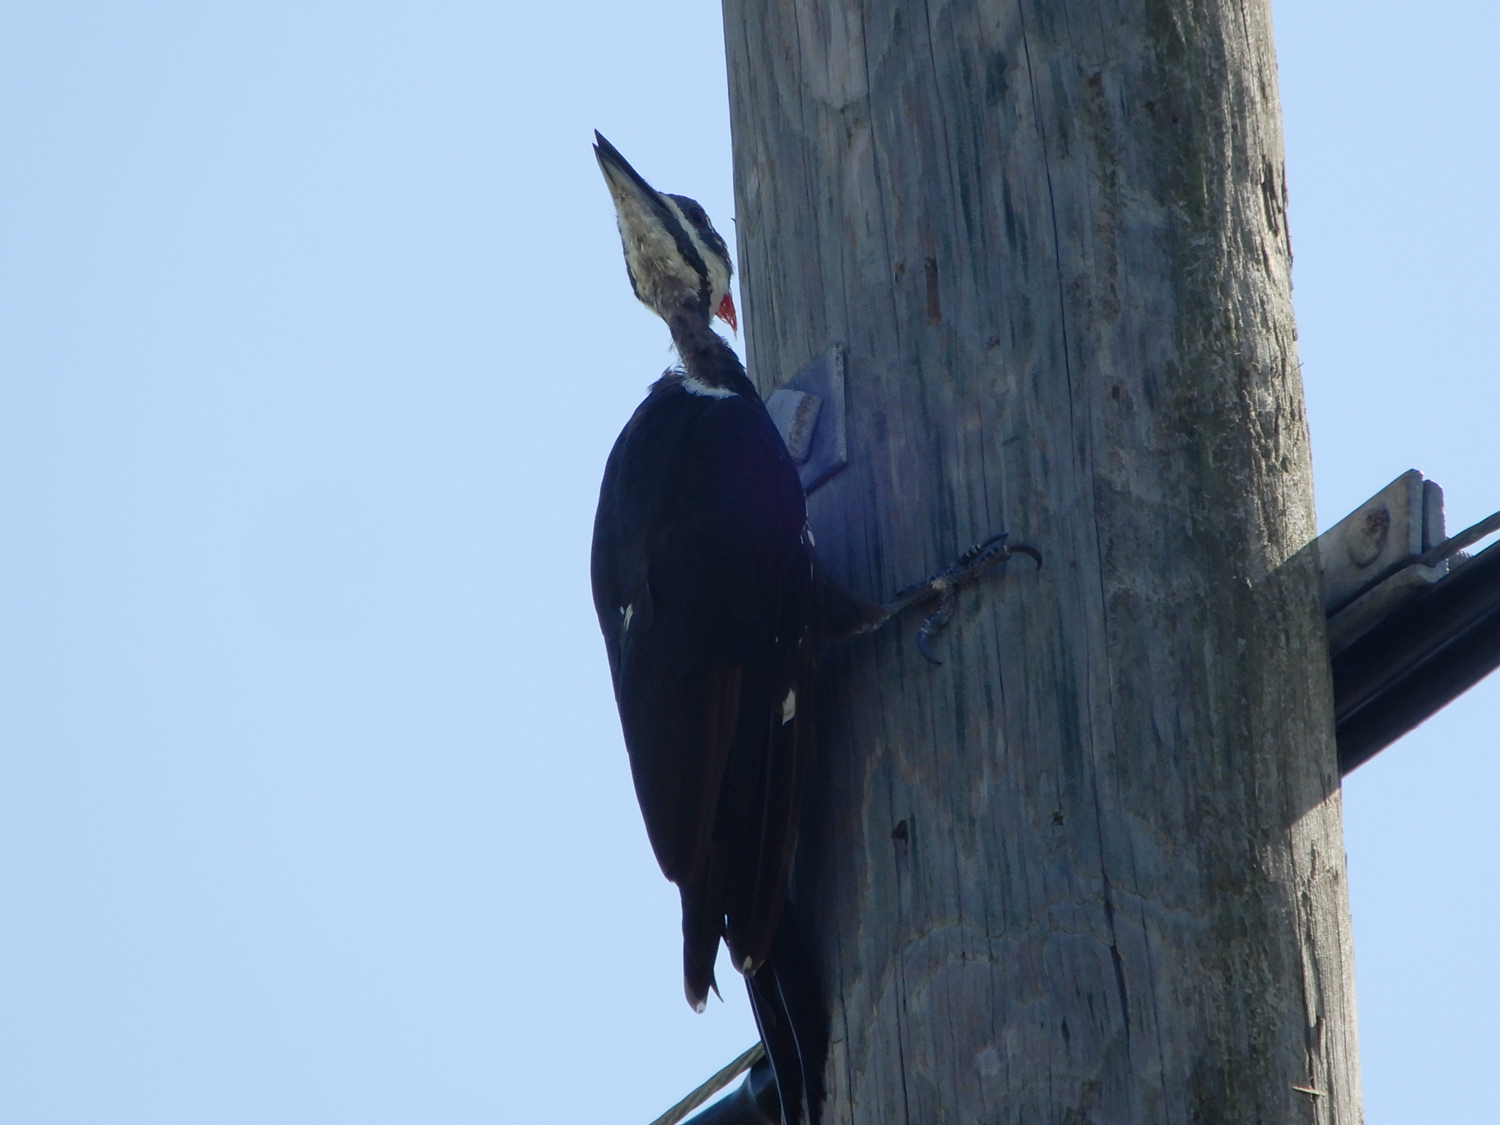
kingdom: Animalia
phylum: Chordata
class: Aves
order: Piciformes
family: Picidae
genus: Dryocopus
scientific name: Dryocopus pileatus
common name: Pileated woodpecker
